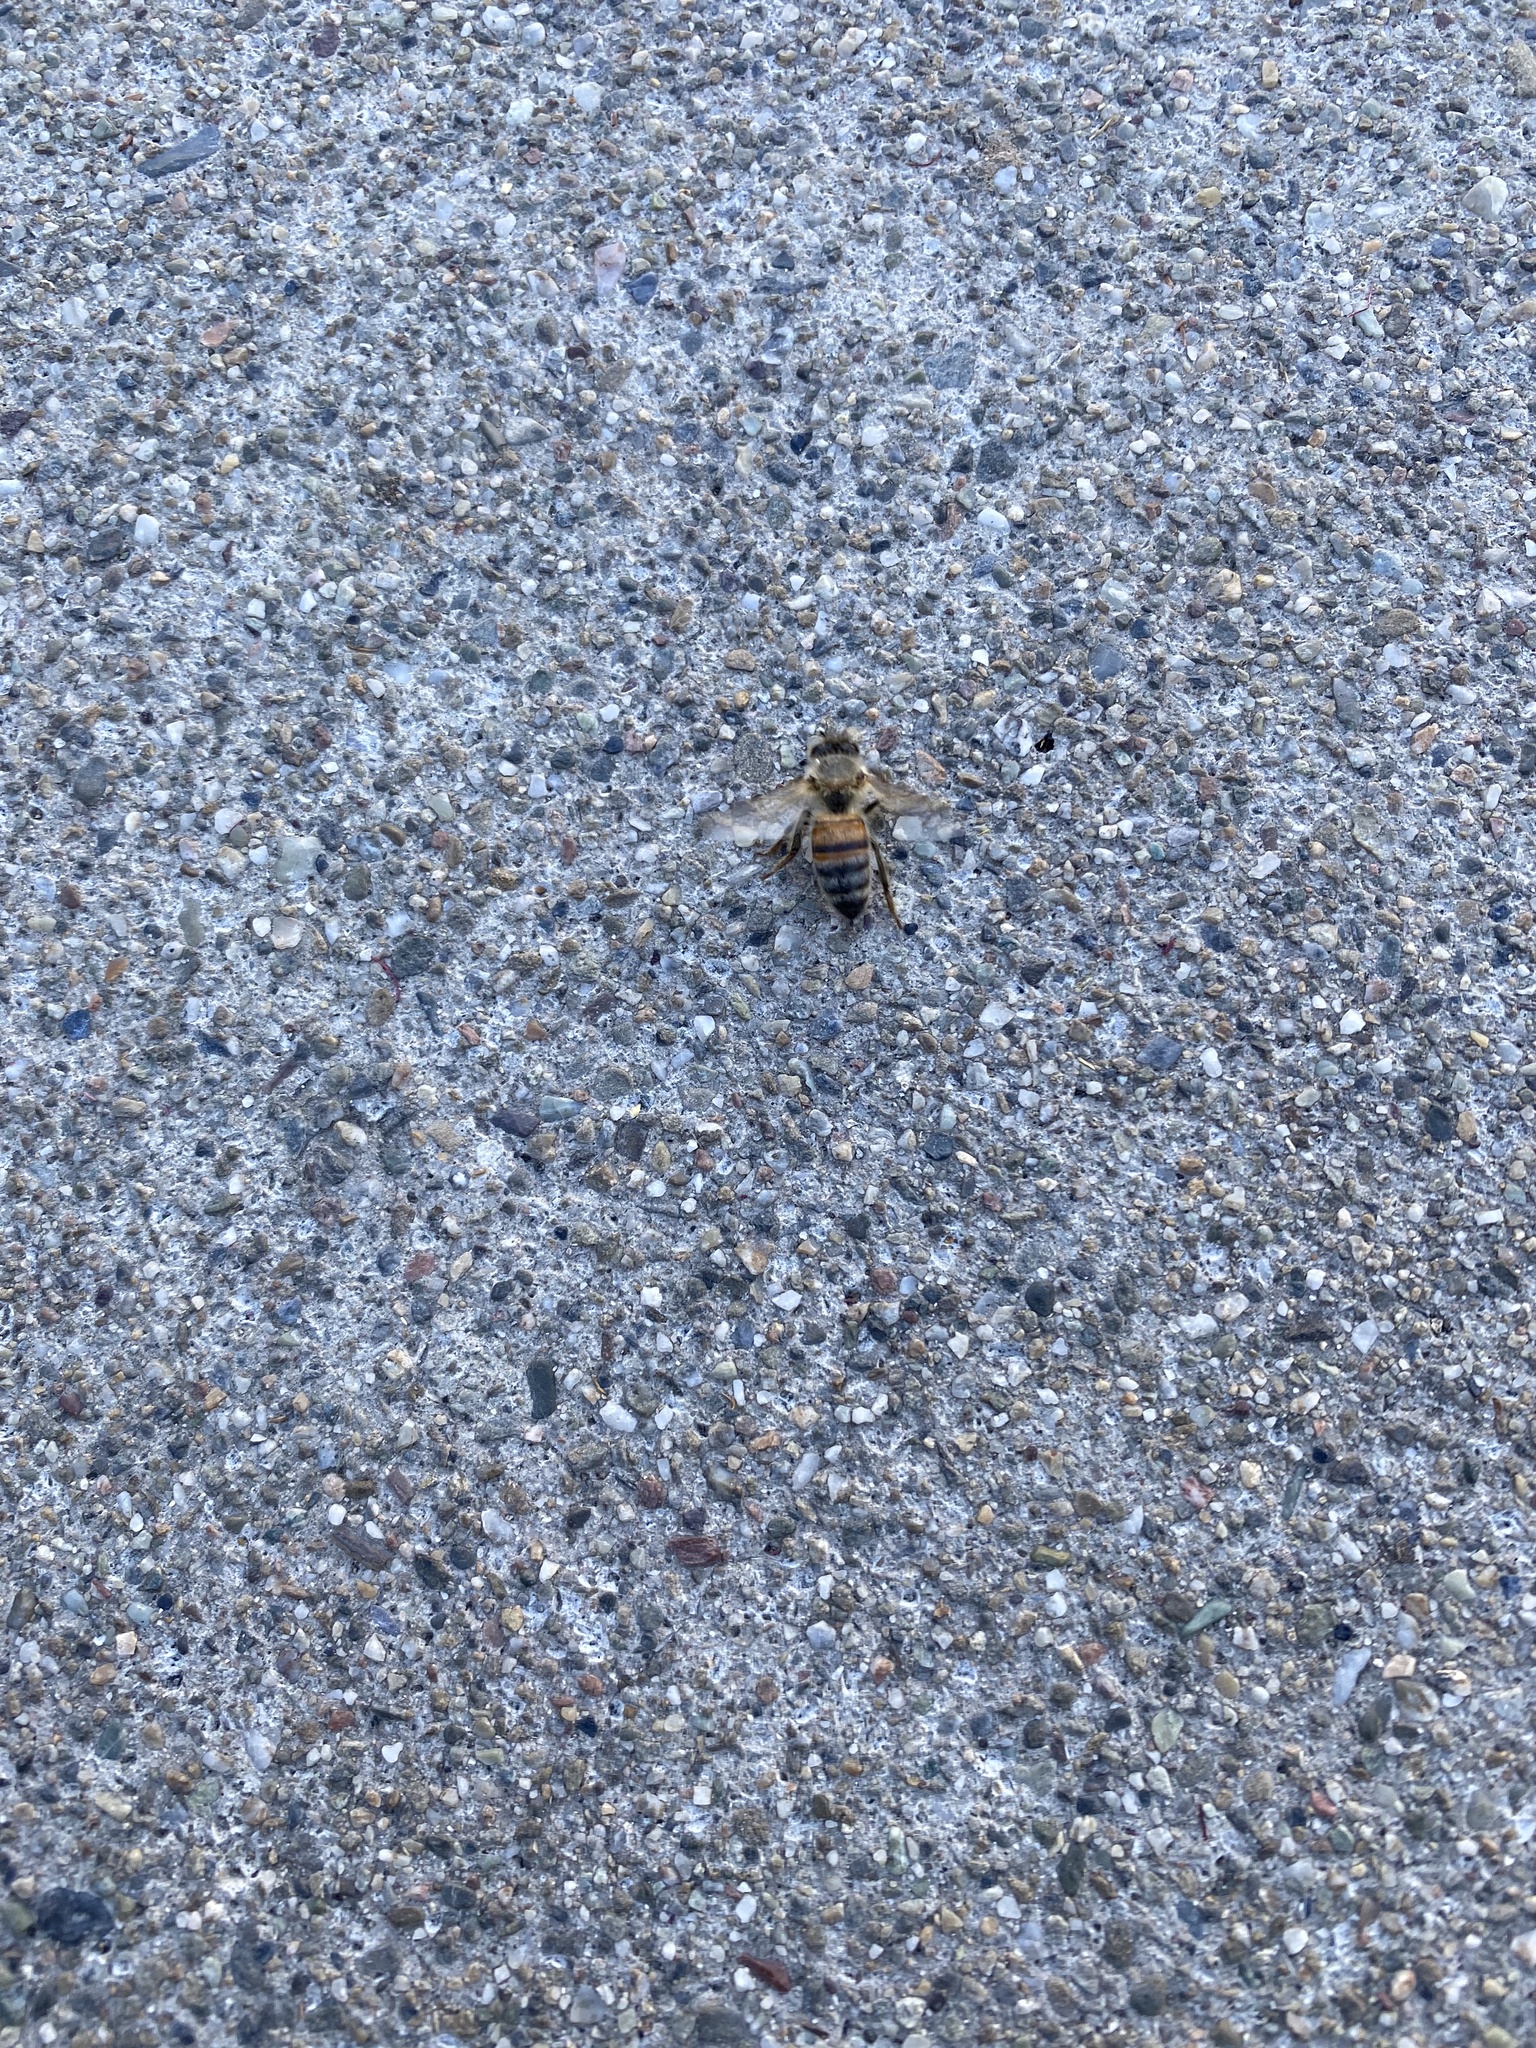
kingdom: Animalia
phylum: Arthropoda
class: Insecta
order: Hymenoptera
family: Apidae
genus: Apis
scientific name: Apis mellifera
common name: Honey bee
